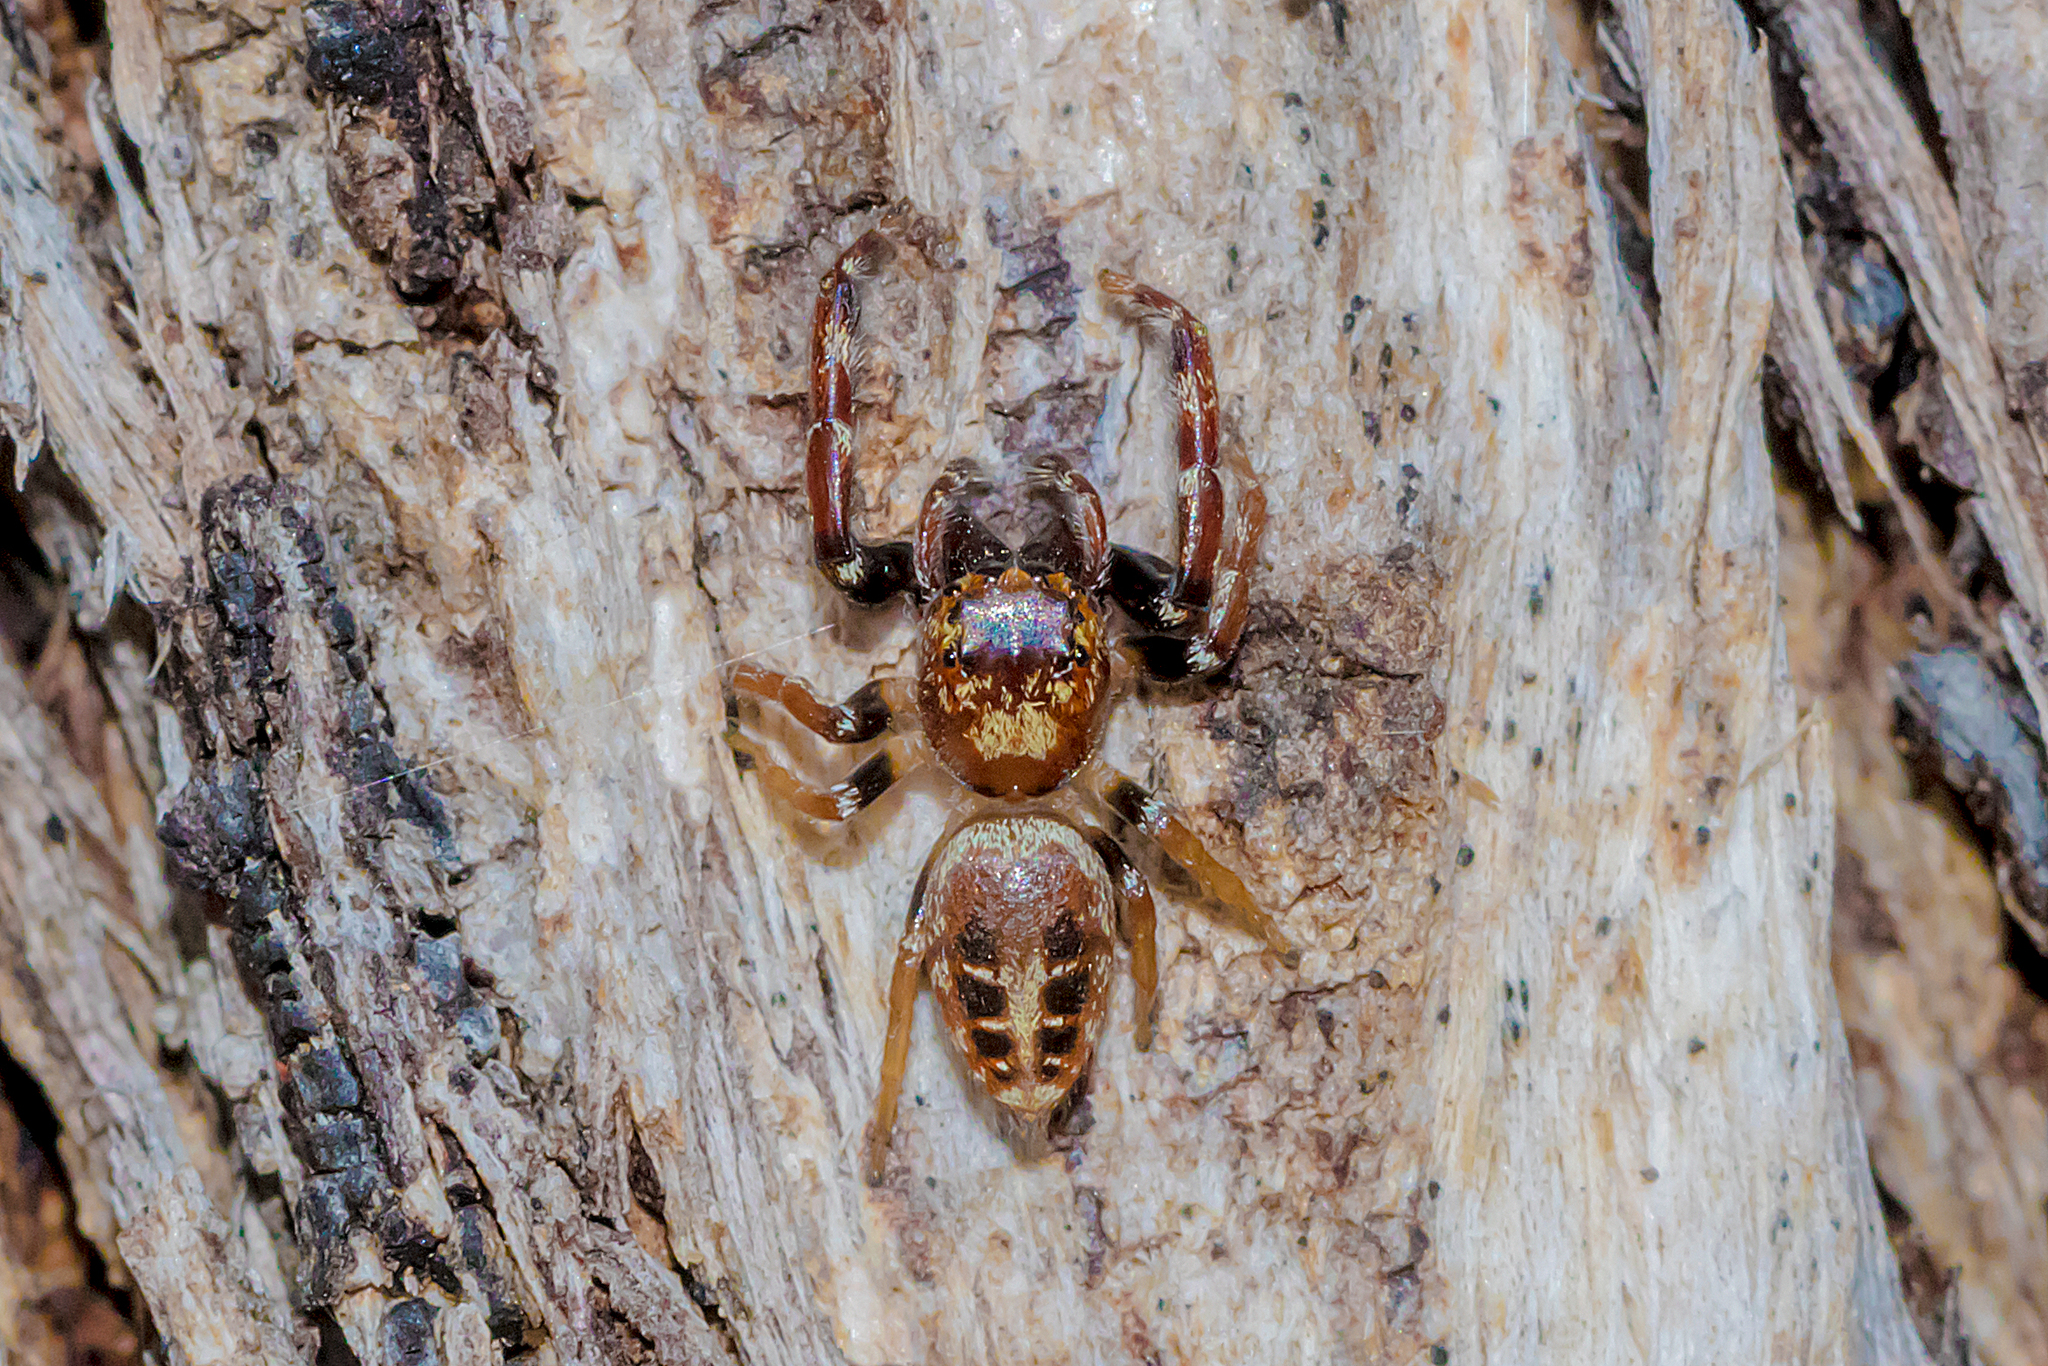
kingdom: Animalia
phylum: Arthropoda
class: Arachnida
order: Araneae
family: Salticidae
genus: Opisthoncus
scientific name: Opisthoncus sexmaculatus
